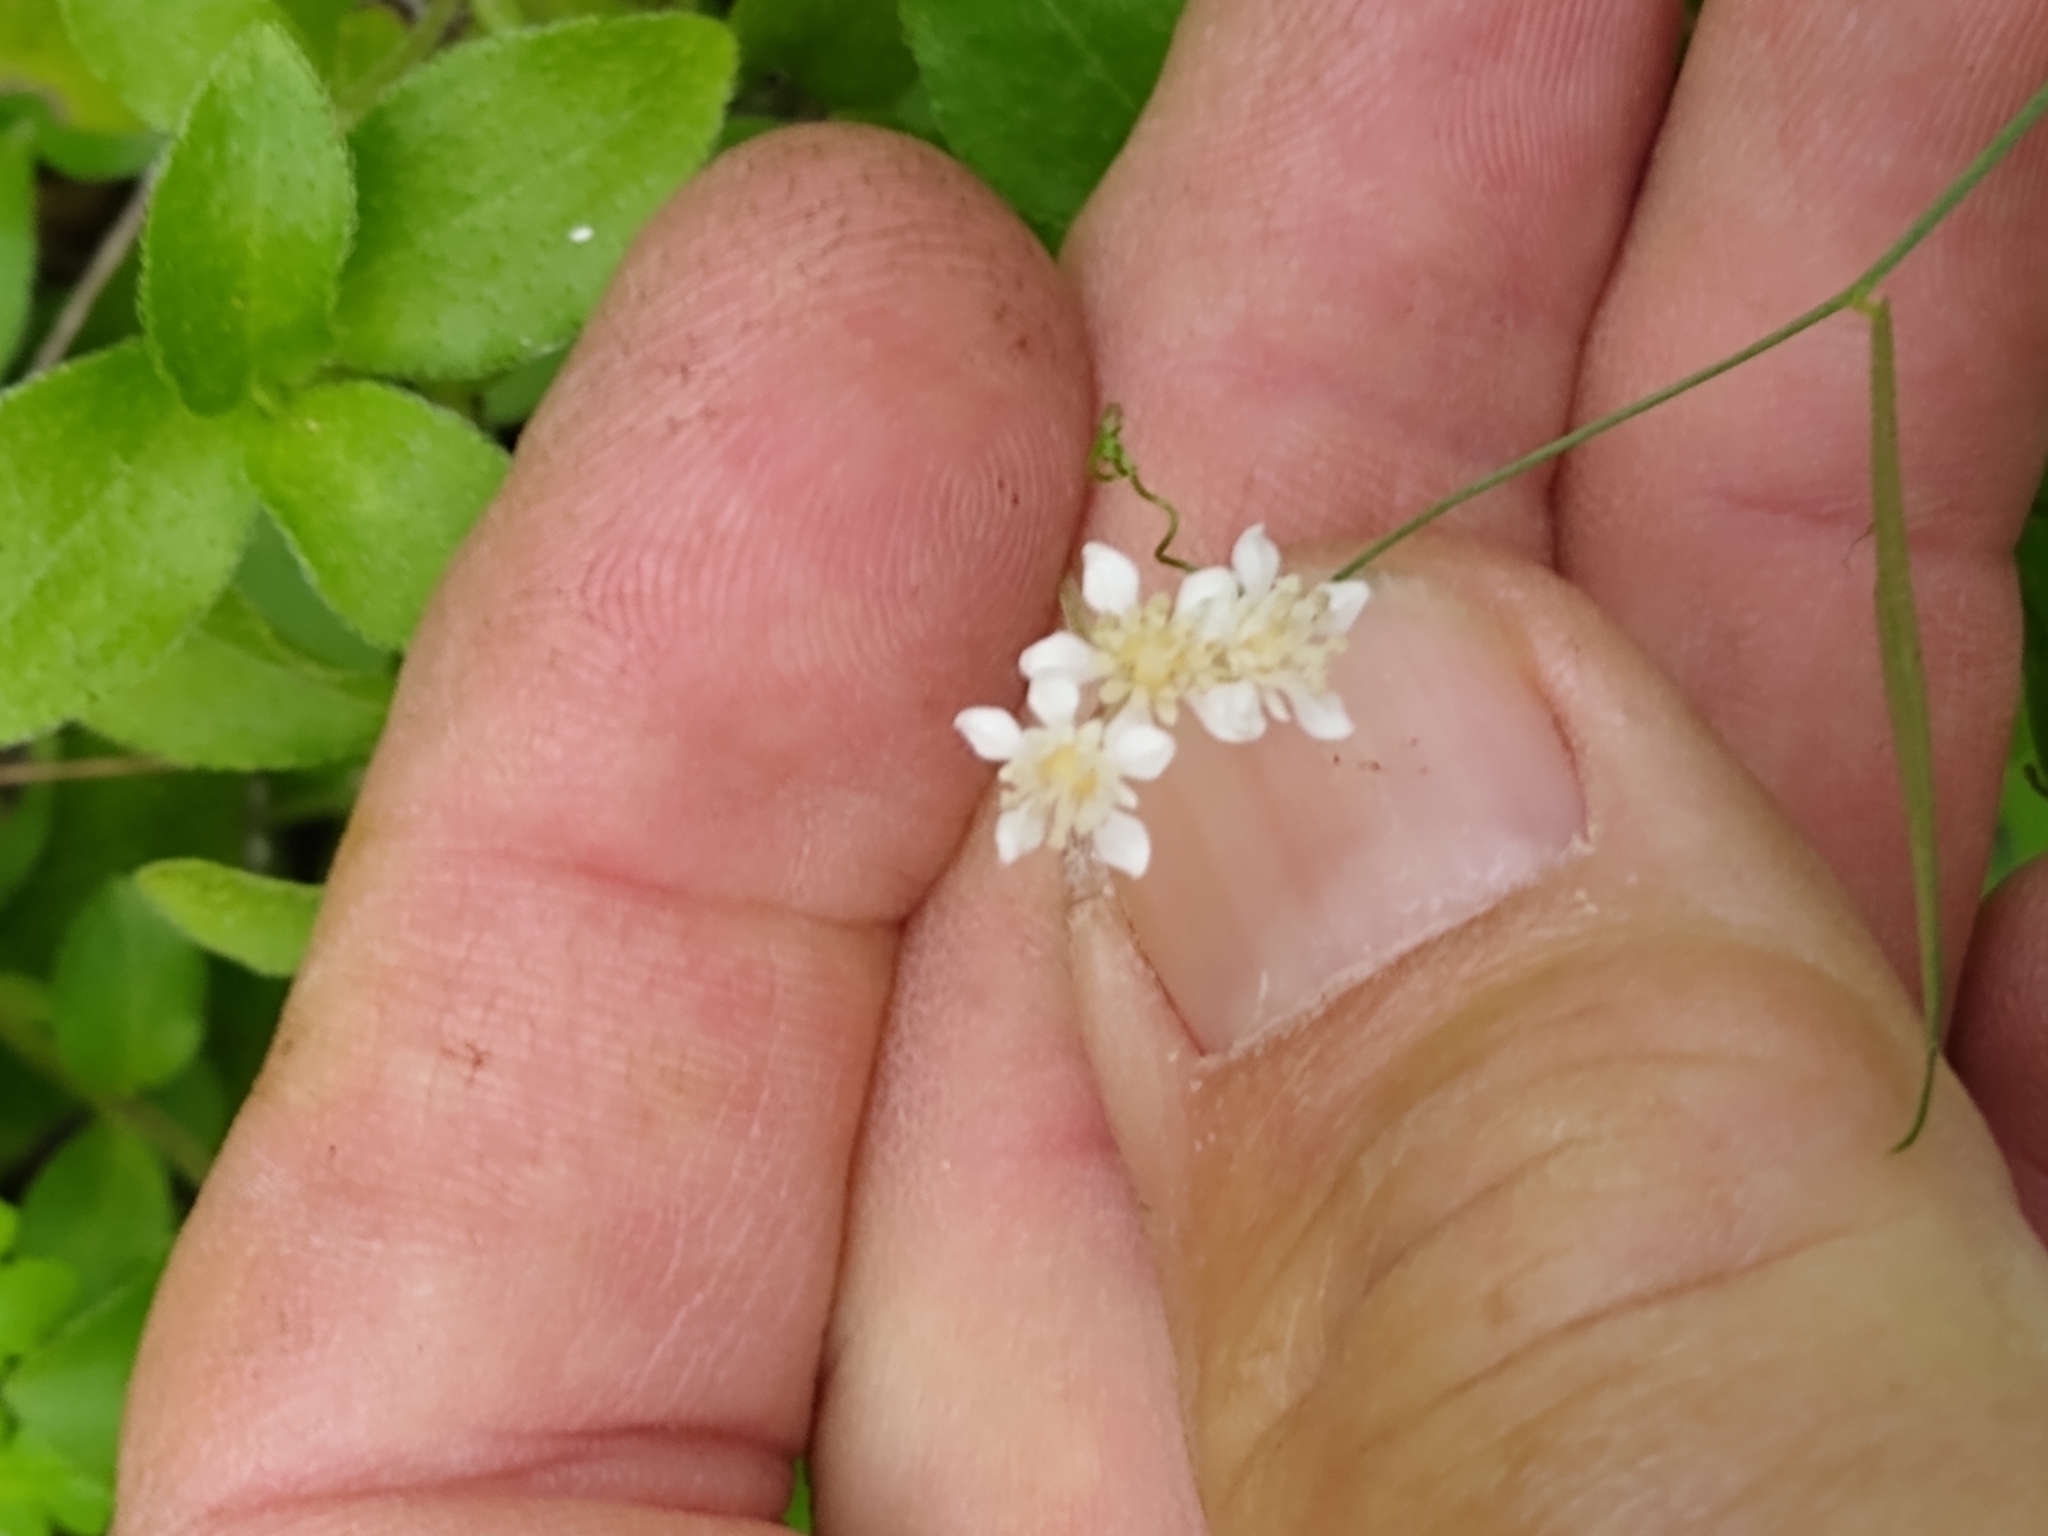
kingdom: Plantae
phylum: Tracheophyta
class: Magnoliopsida
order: Cornales
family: Hydrangeaceae
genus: Whipplea
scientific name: Whipplea modesta
